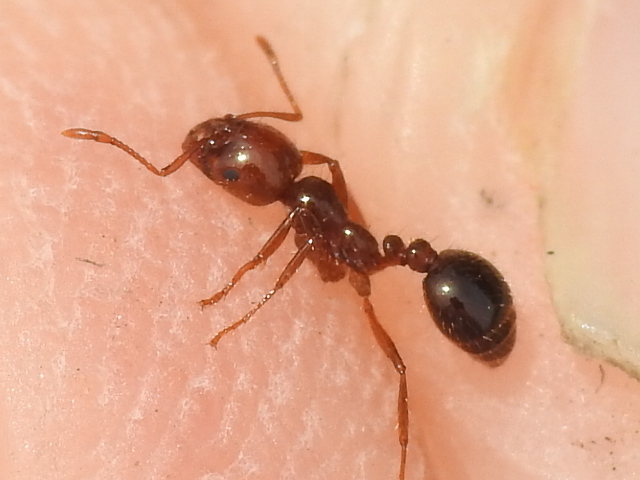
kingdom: Animalia
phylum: Arthropoda
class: Insecta
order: Hymenoptera
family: Formicidae
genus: Solenopsis
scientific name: Solenopsis invicta
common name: Red imported fire ant
